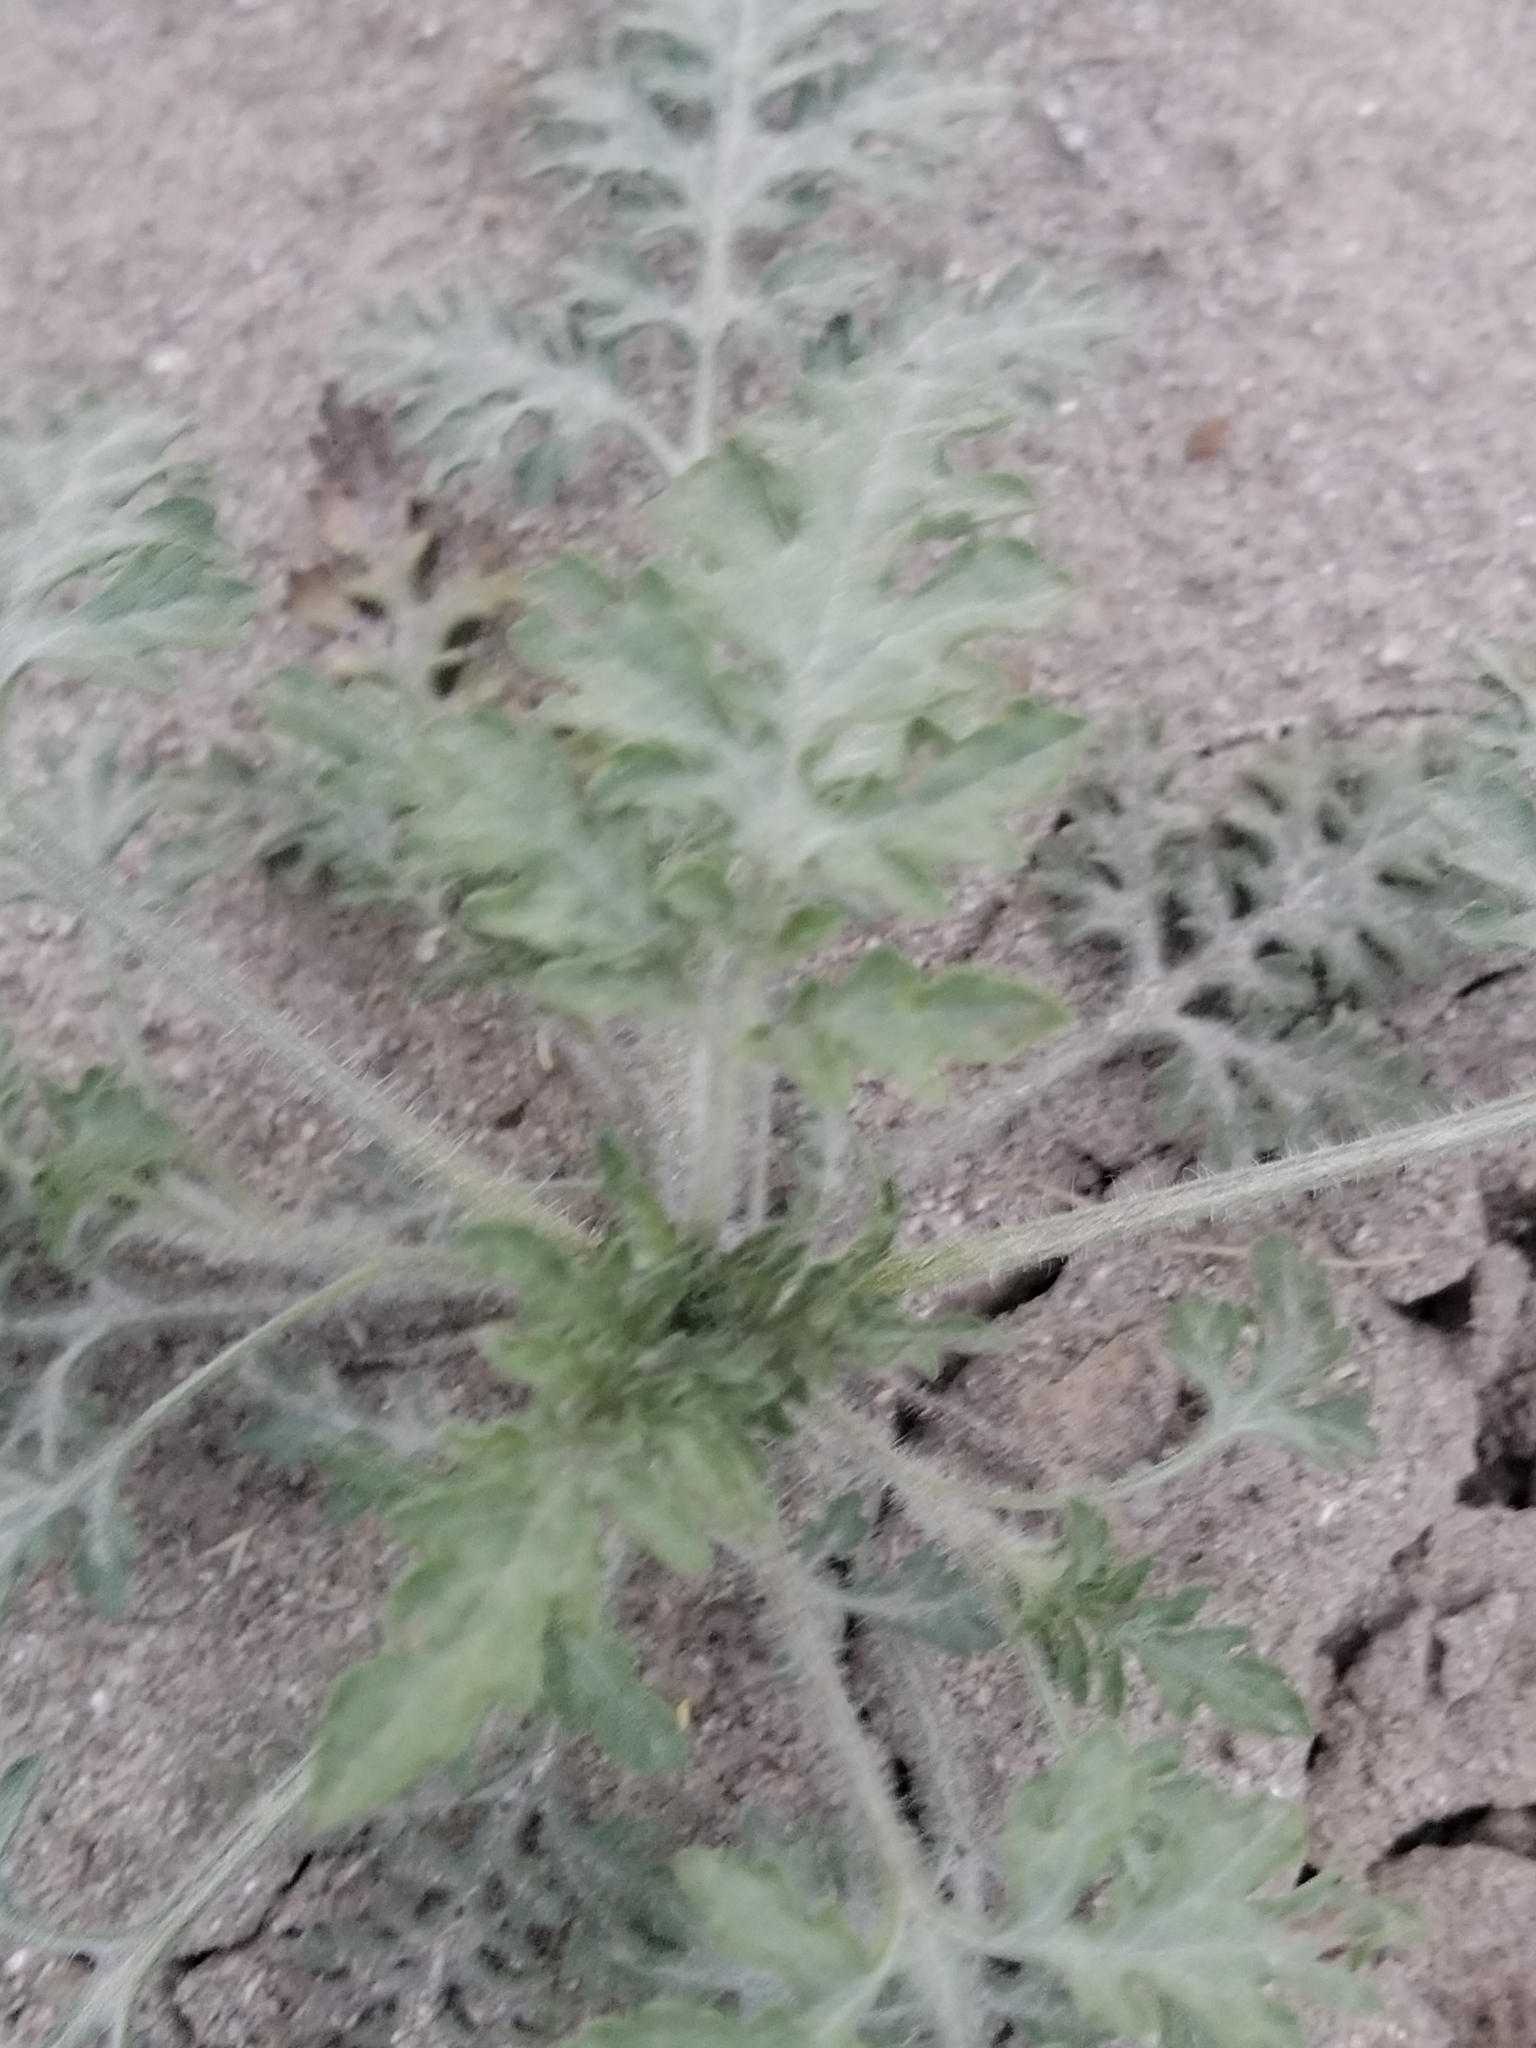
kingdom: Plantae
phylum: Tracheophyta
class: Magnoliopsida
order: Asterales
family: Asteraceae
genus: Ambrosia
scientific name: Ambrosia acanthicarpa
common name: Hooker's bur ragweed
